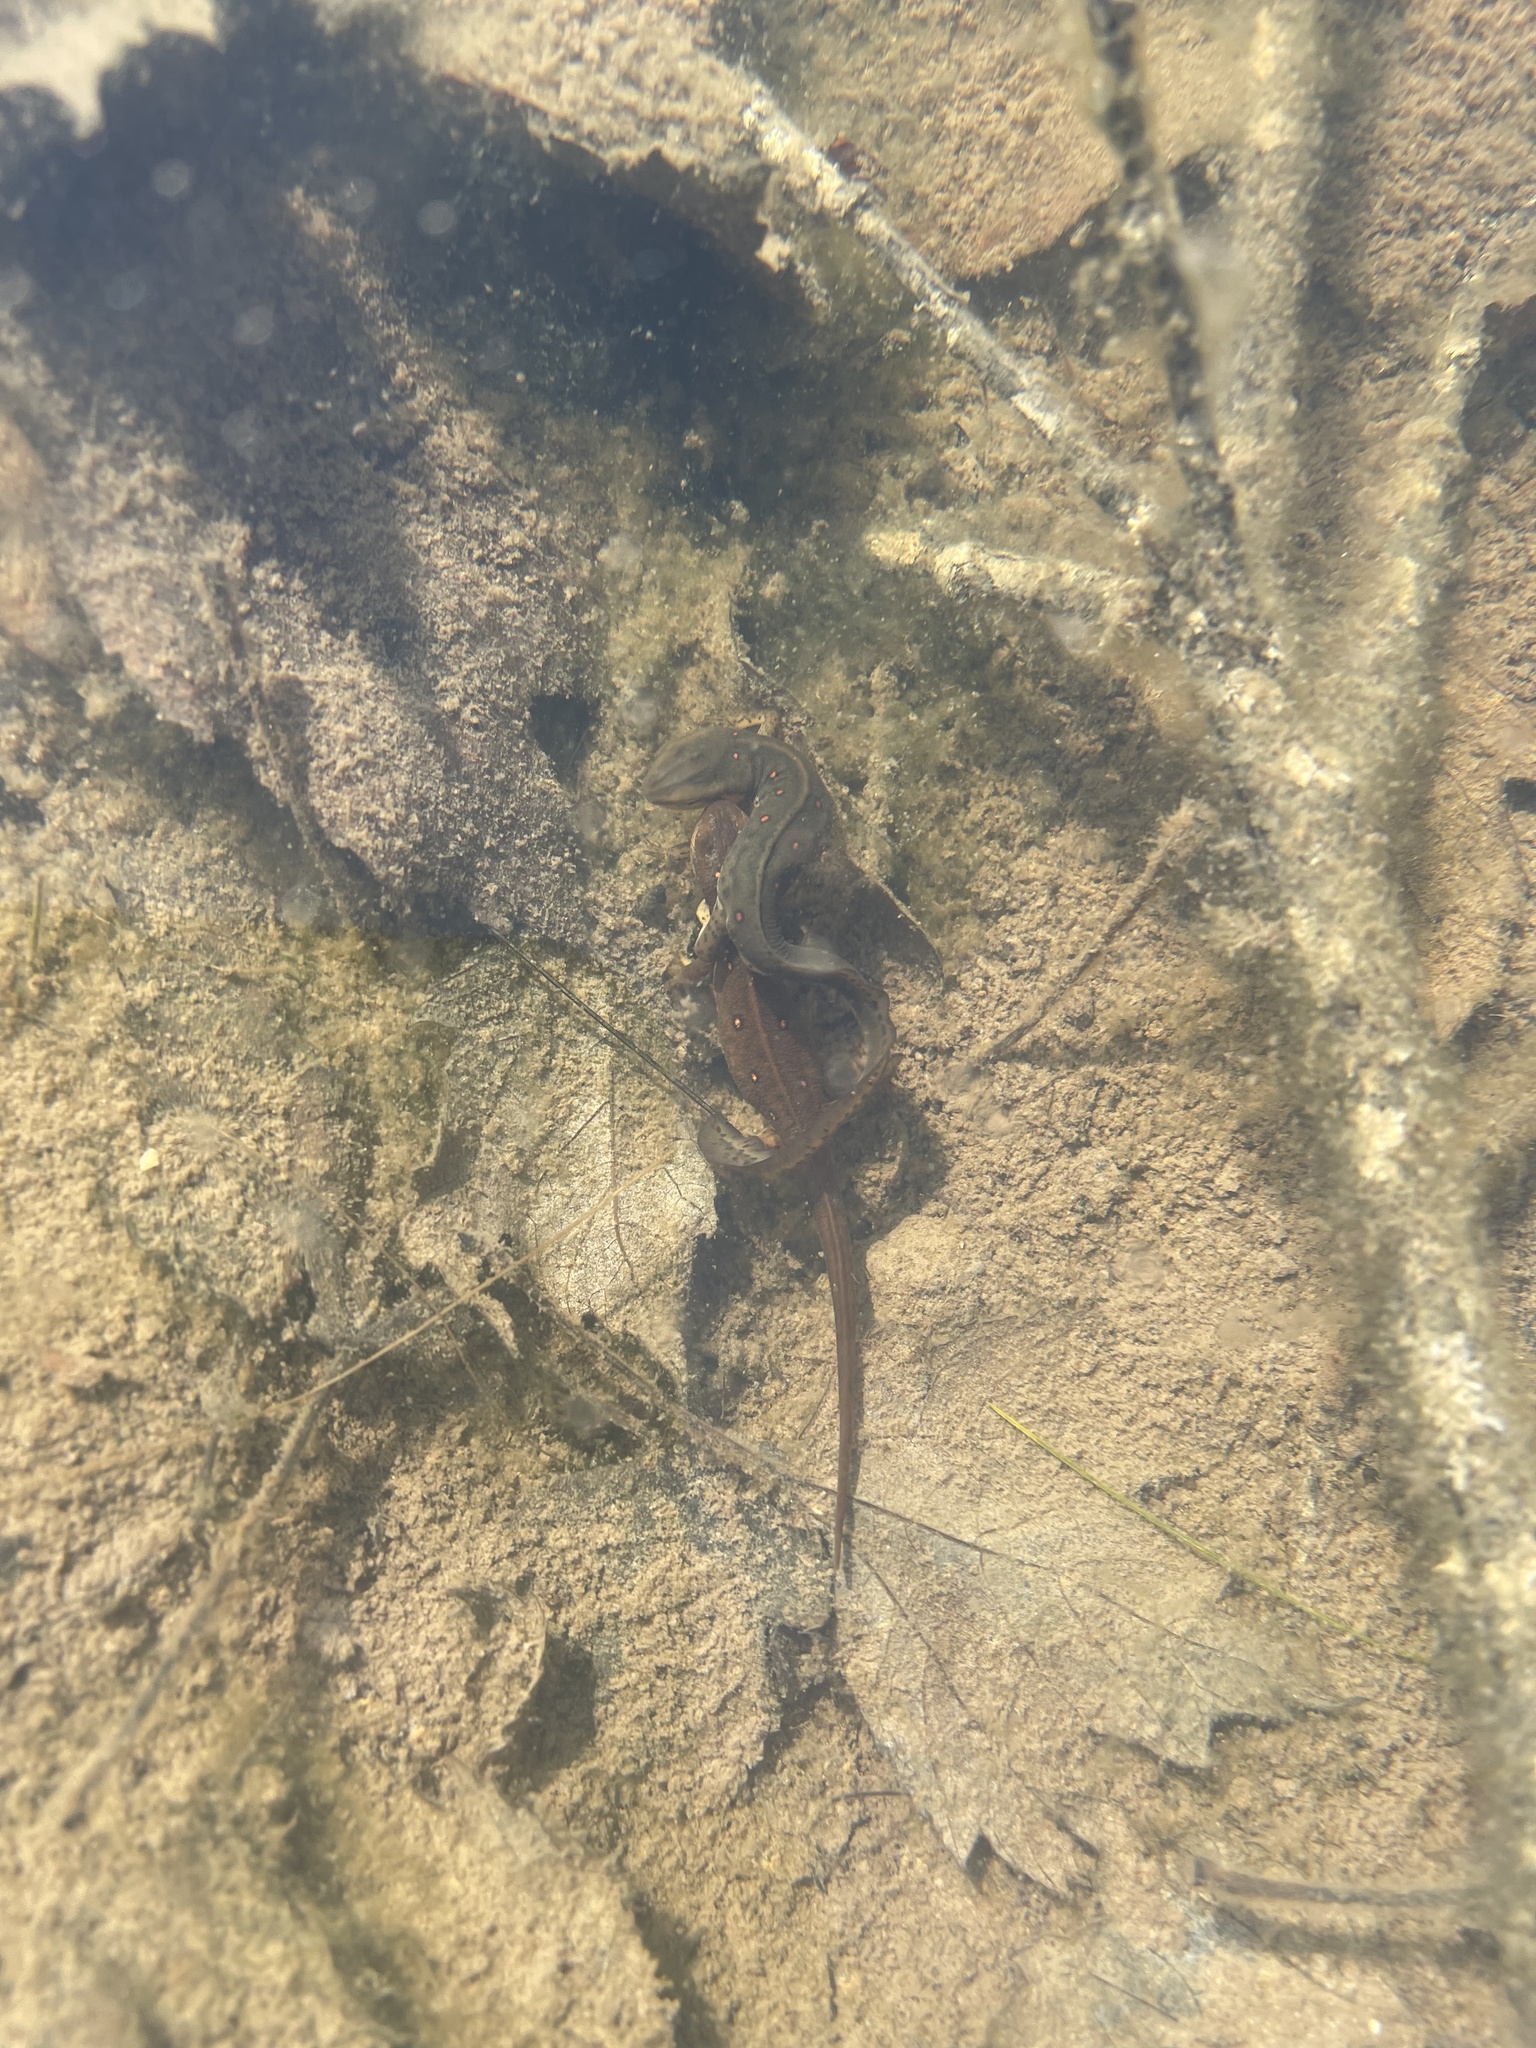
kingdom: Animalia
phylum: Chordata
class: Amphibia
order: Caudata
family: Salamandridae
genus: Notophthalmus
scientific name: Notophthalmus viridescens
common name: Eastern newt
